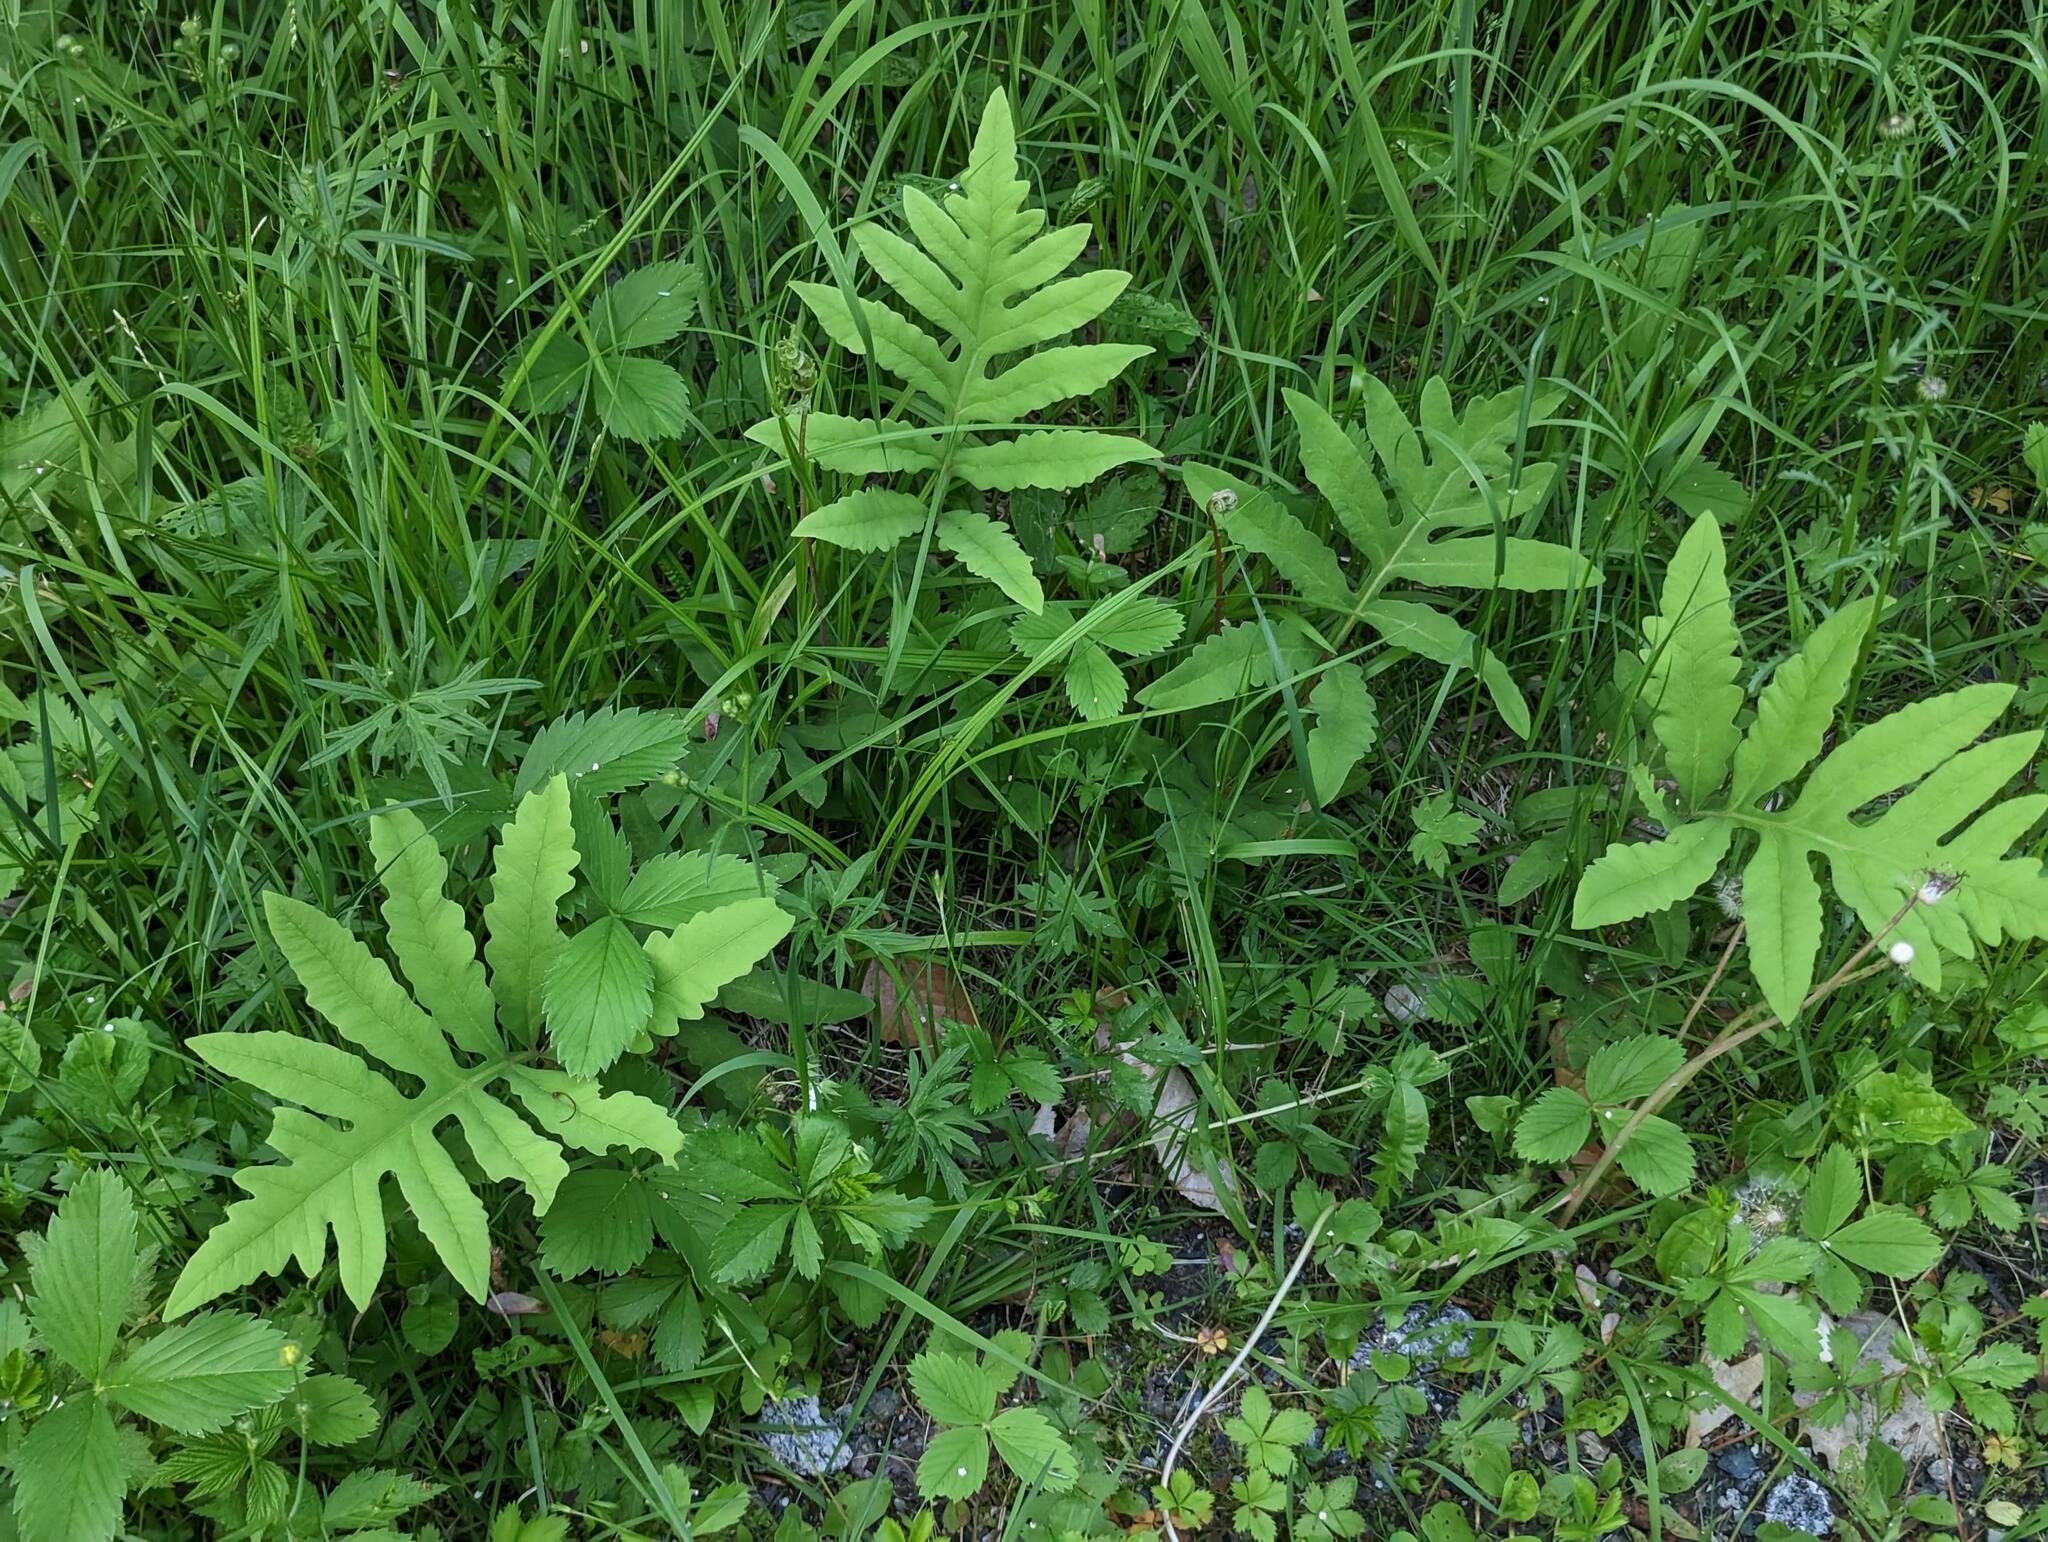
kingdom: Plantae
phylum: Tracheophyta
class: Polypodiopsida
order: Polypodiales
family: Onocleaceae
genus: Onoclea
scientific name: Onoclea sensibilis
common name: Sensitive fern
